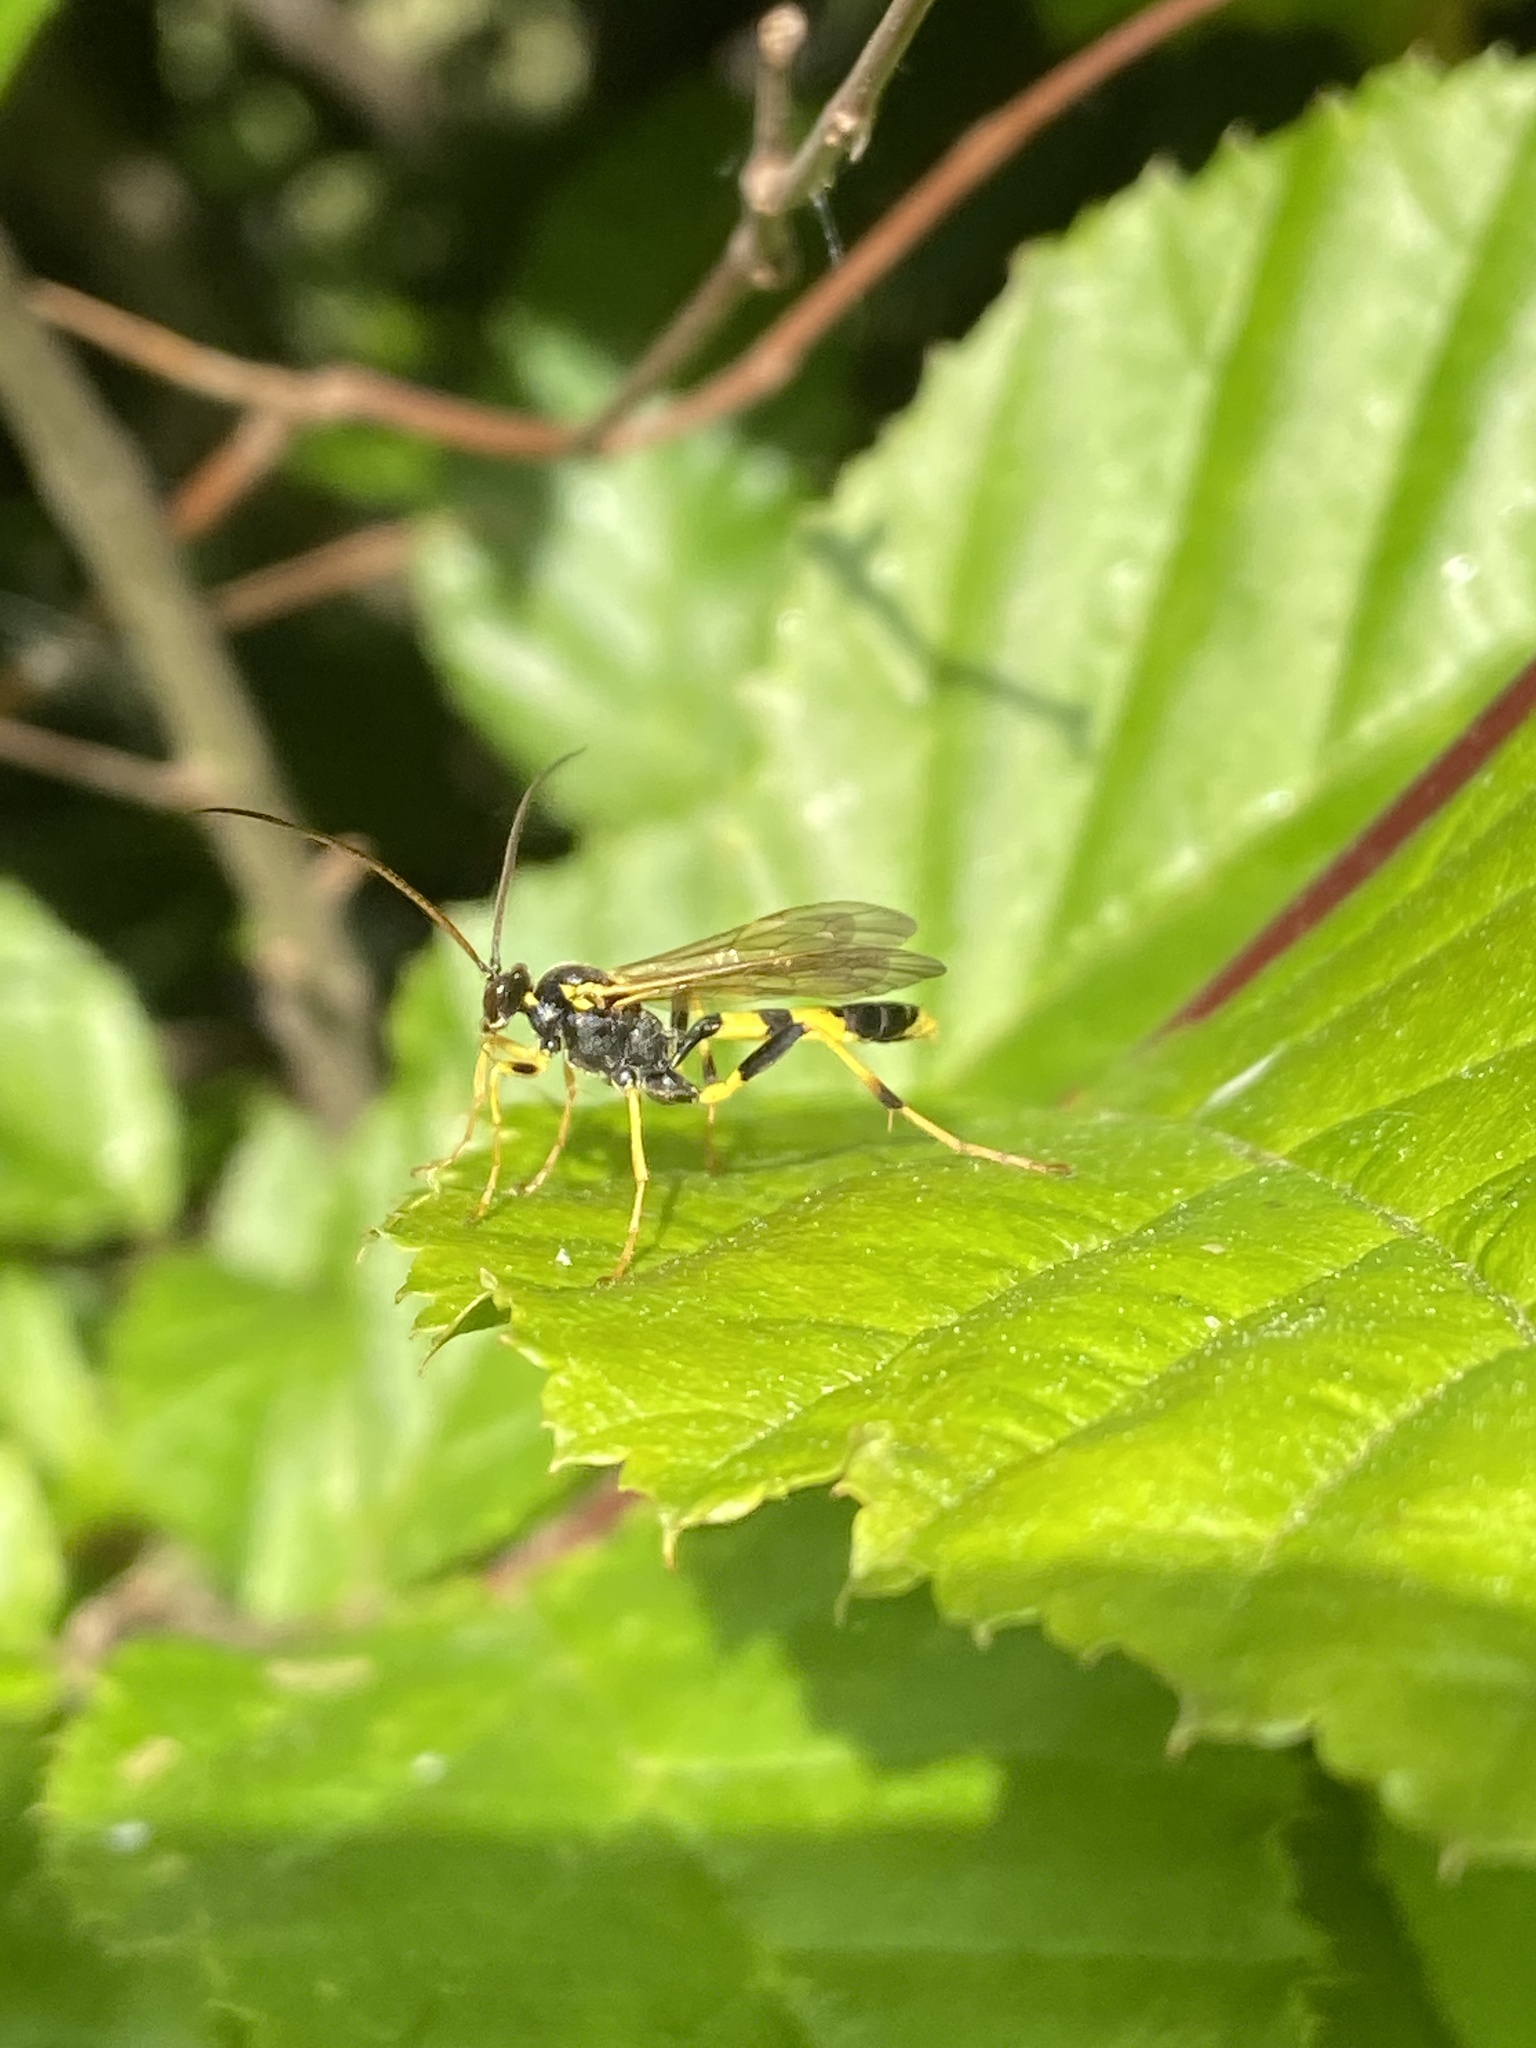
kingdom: Animalia
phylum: Arthropoda
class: Insecta
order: Hymenoptera
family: Ichneumonidae
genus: Amblyteles
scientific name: Amblyteles armatorius
